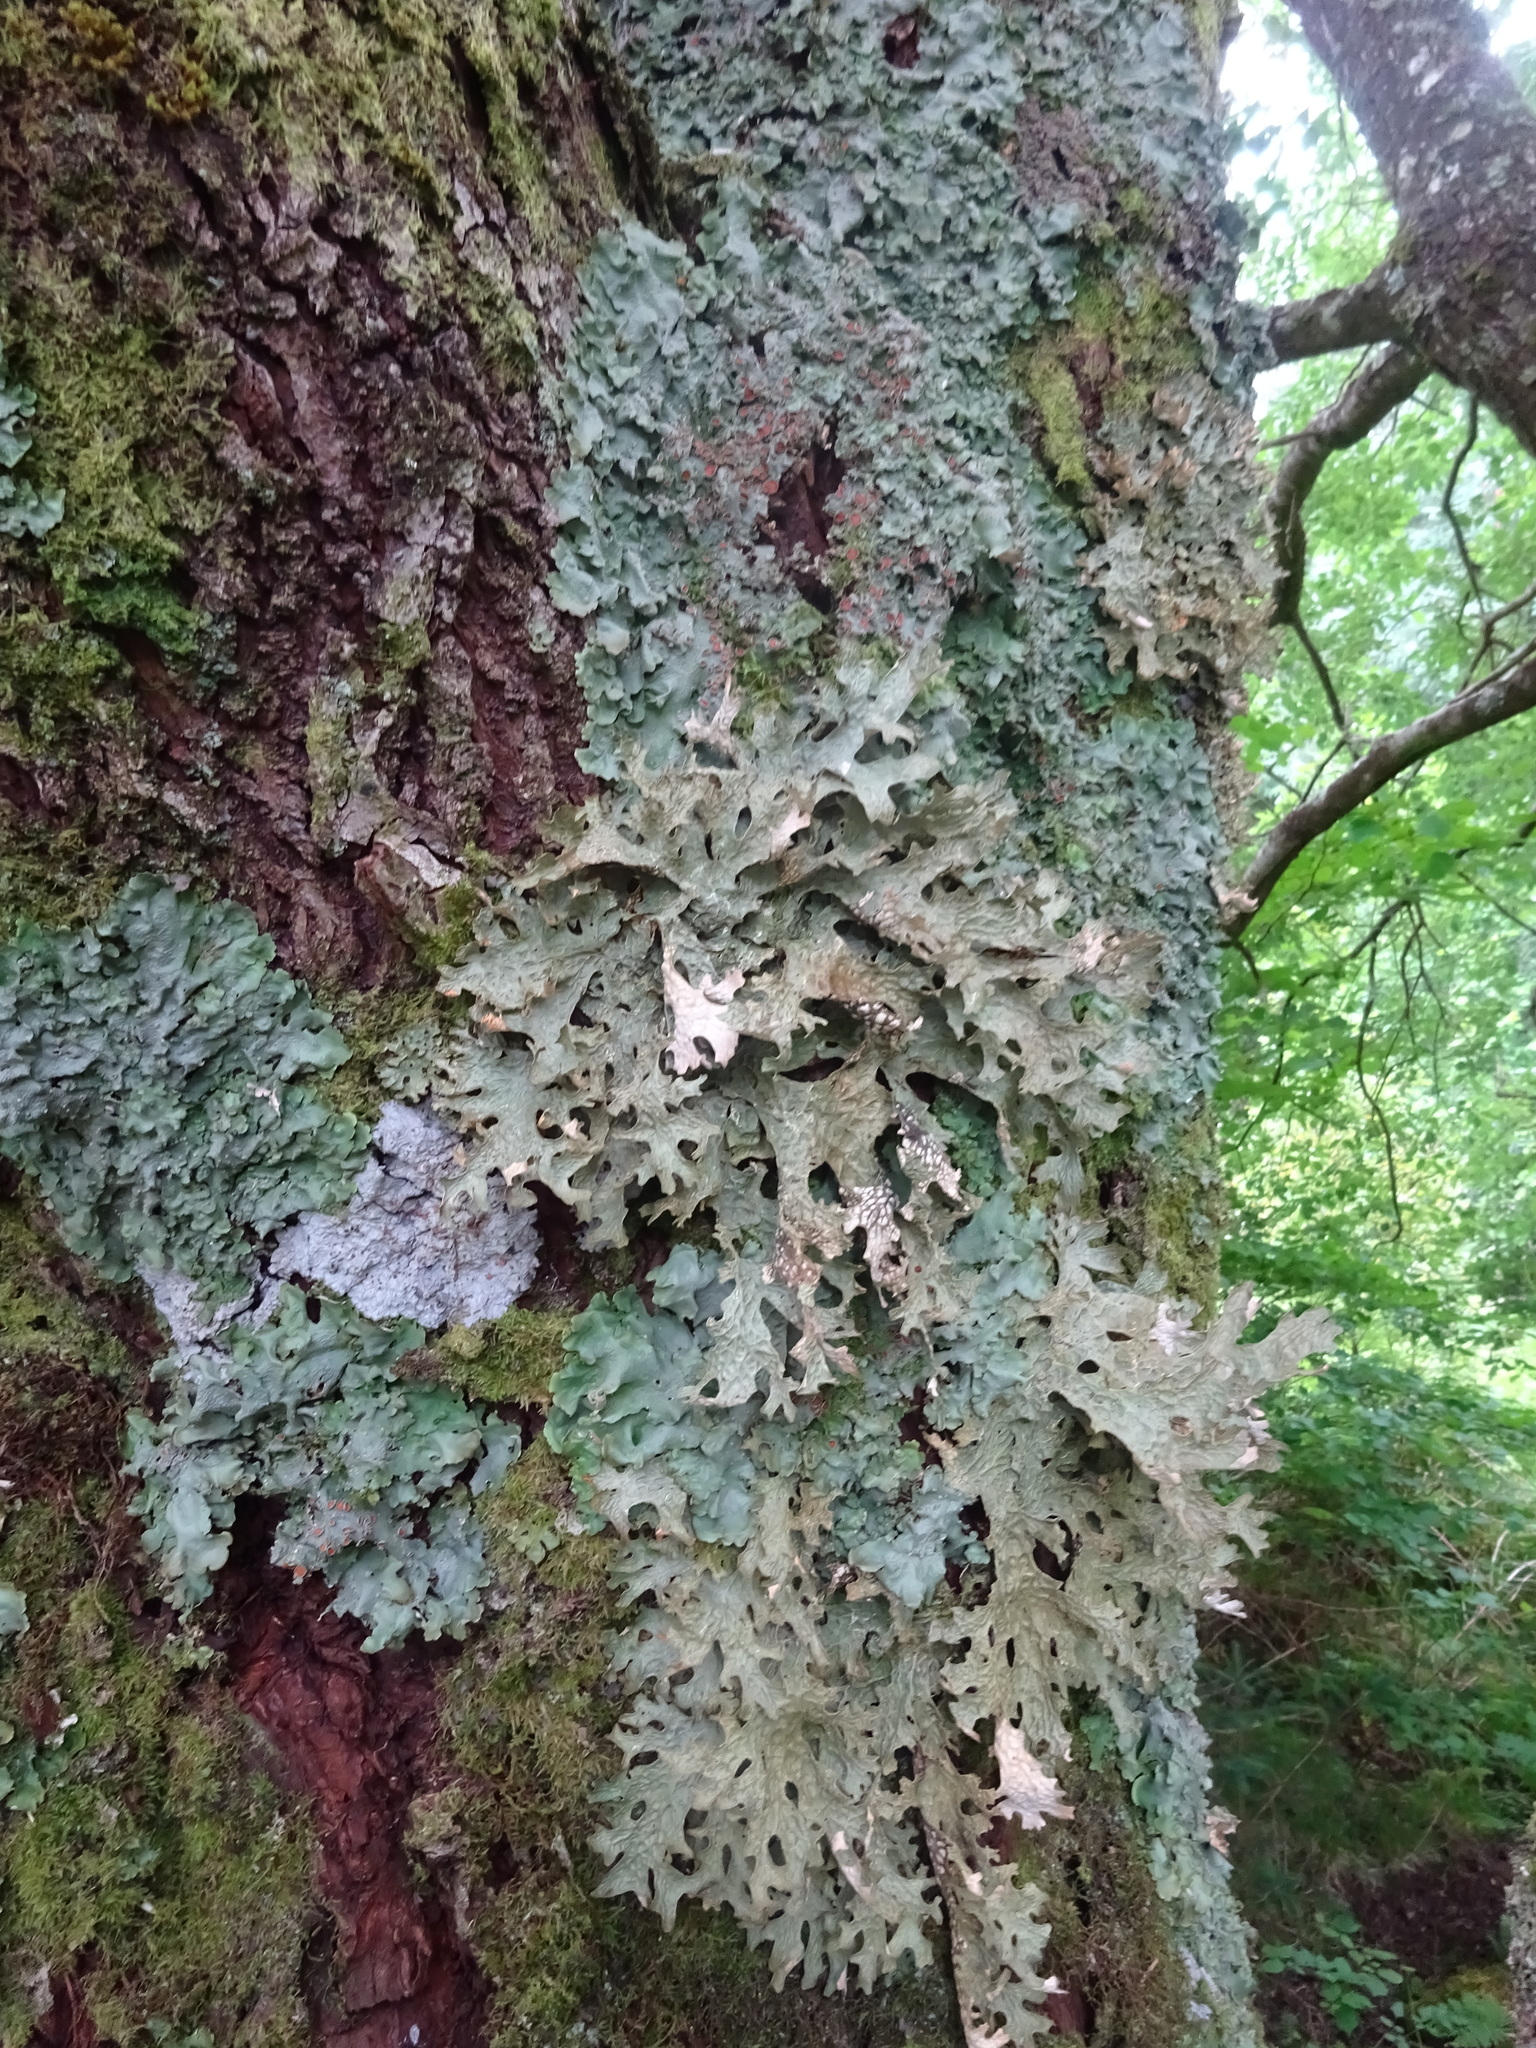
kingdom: Fungi
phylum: Ascomycota
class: Lecanoromycetes
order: Peltigerales
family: Lobariaceae
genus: Lobaria
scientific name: Lobaria pulmonaria
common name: Lungwort
